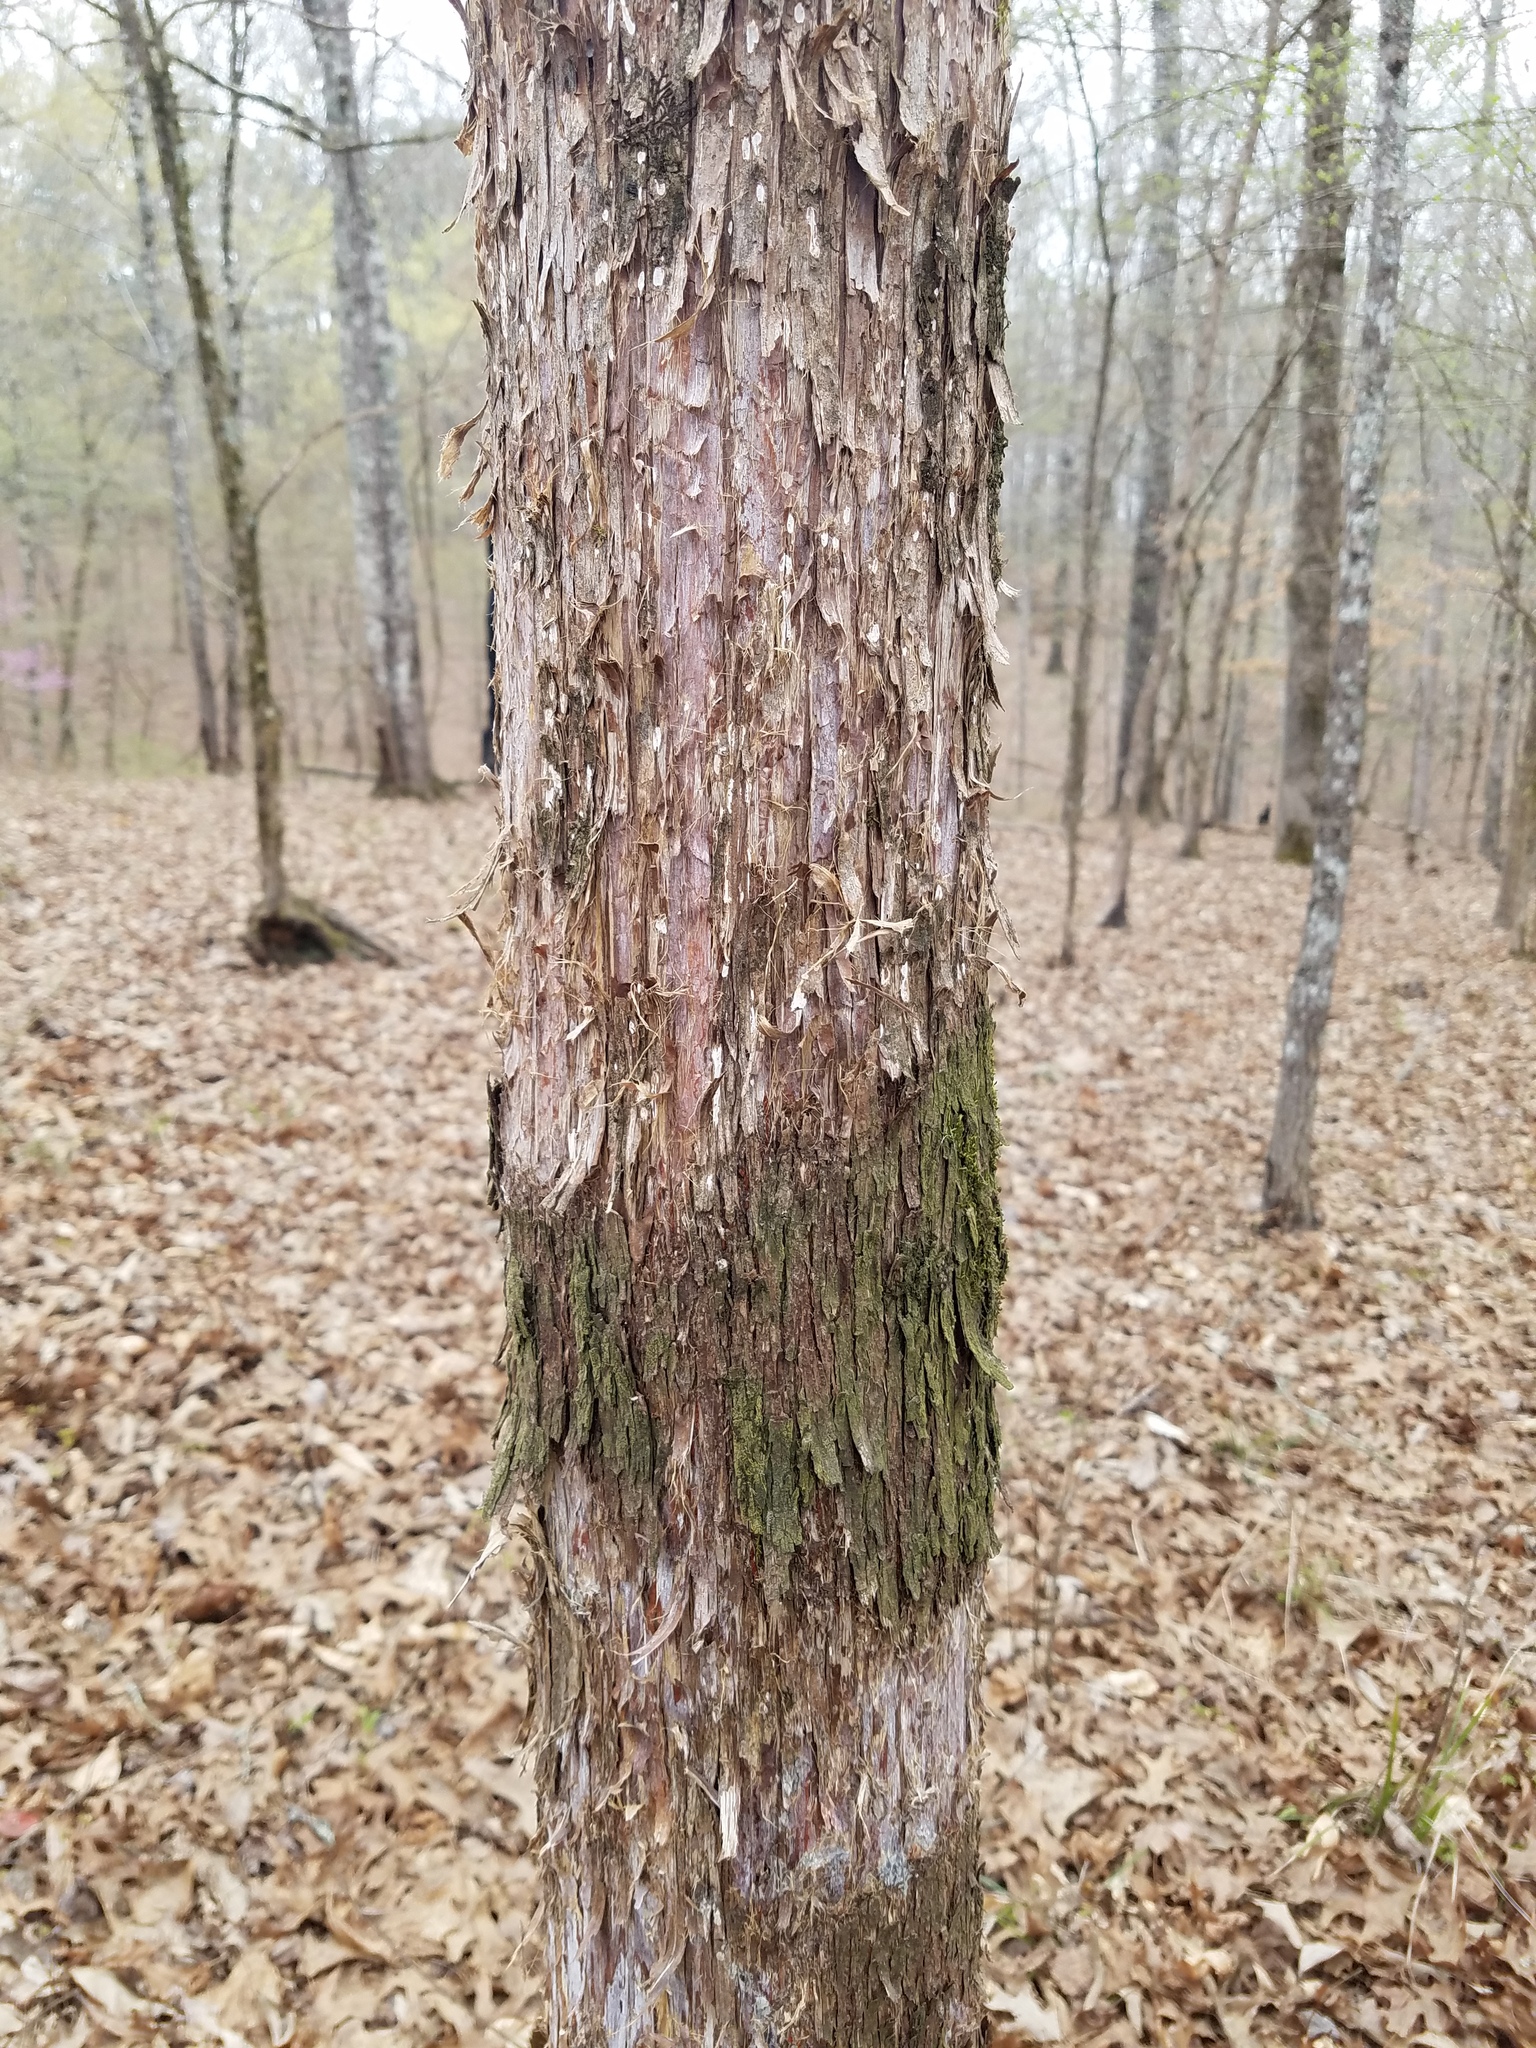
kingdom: Plantae
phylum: Tracheophyta
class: Pinopsida
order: Pinales
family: Cupressaceae
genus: Juniperus
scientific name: Juniperus virginiana
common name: Red juniper
